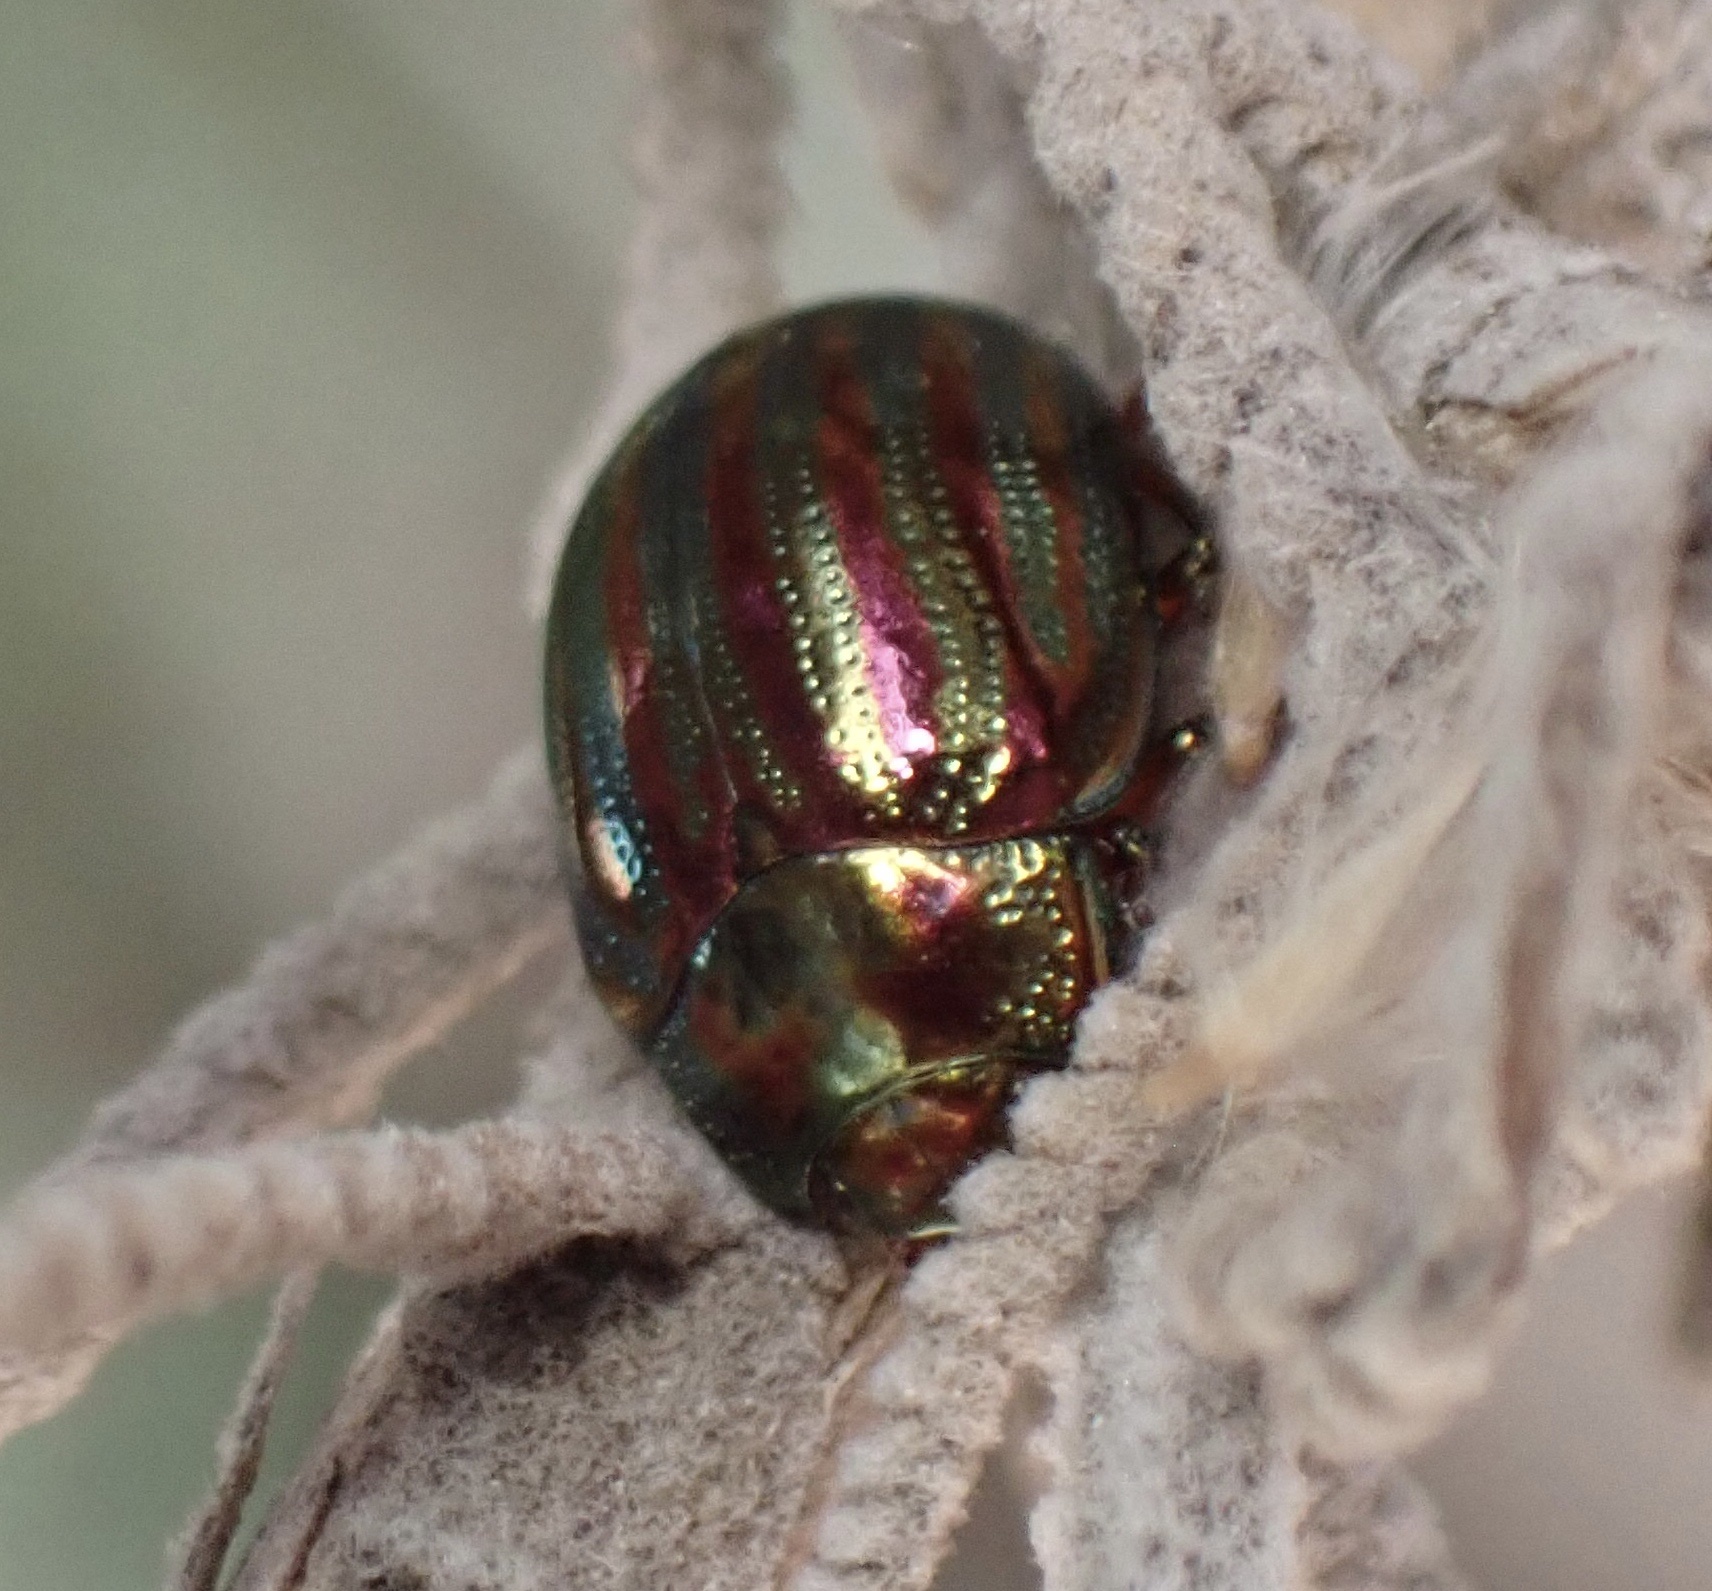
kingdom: Animalia
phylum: Arthropoda
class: Insecta
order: Coleoptera
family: Chrysomelidae
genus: Chrysolina
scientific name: Chrysolina americana
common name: Rosemary beetle
